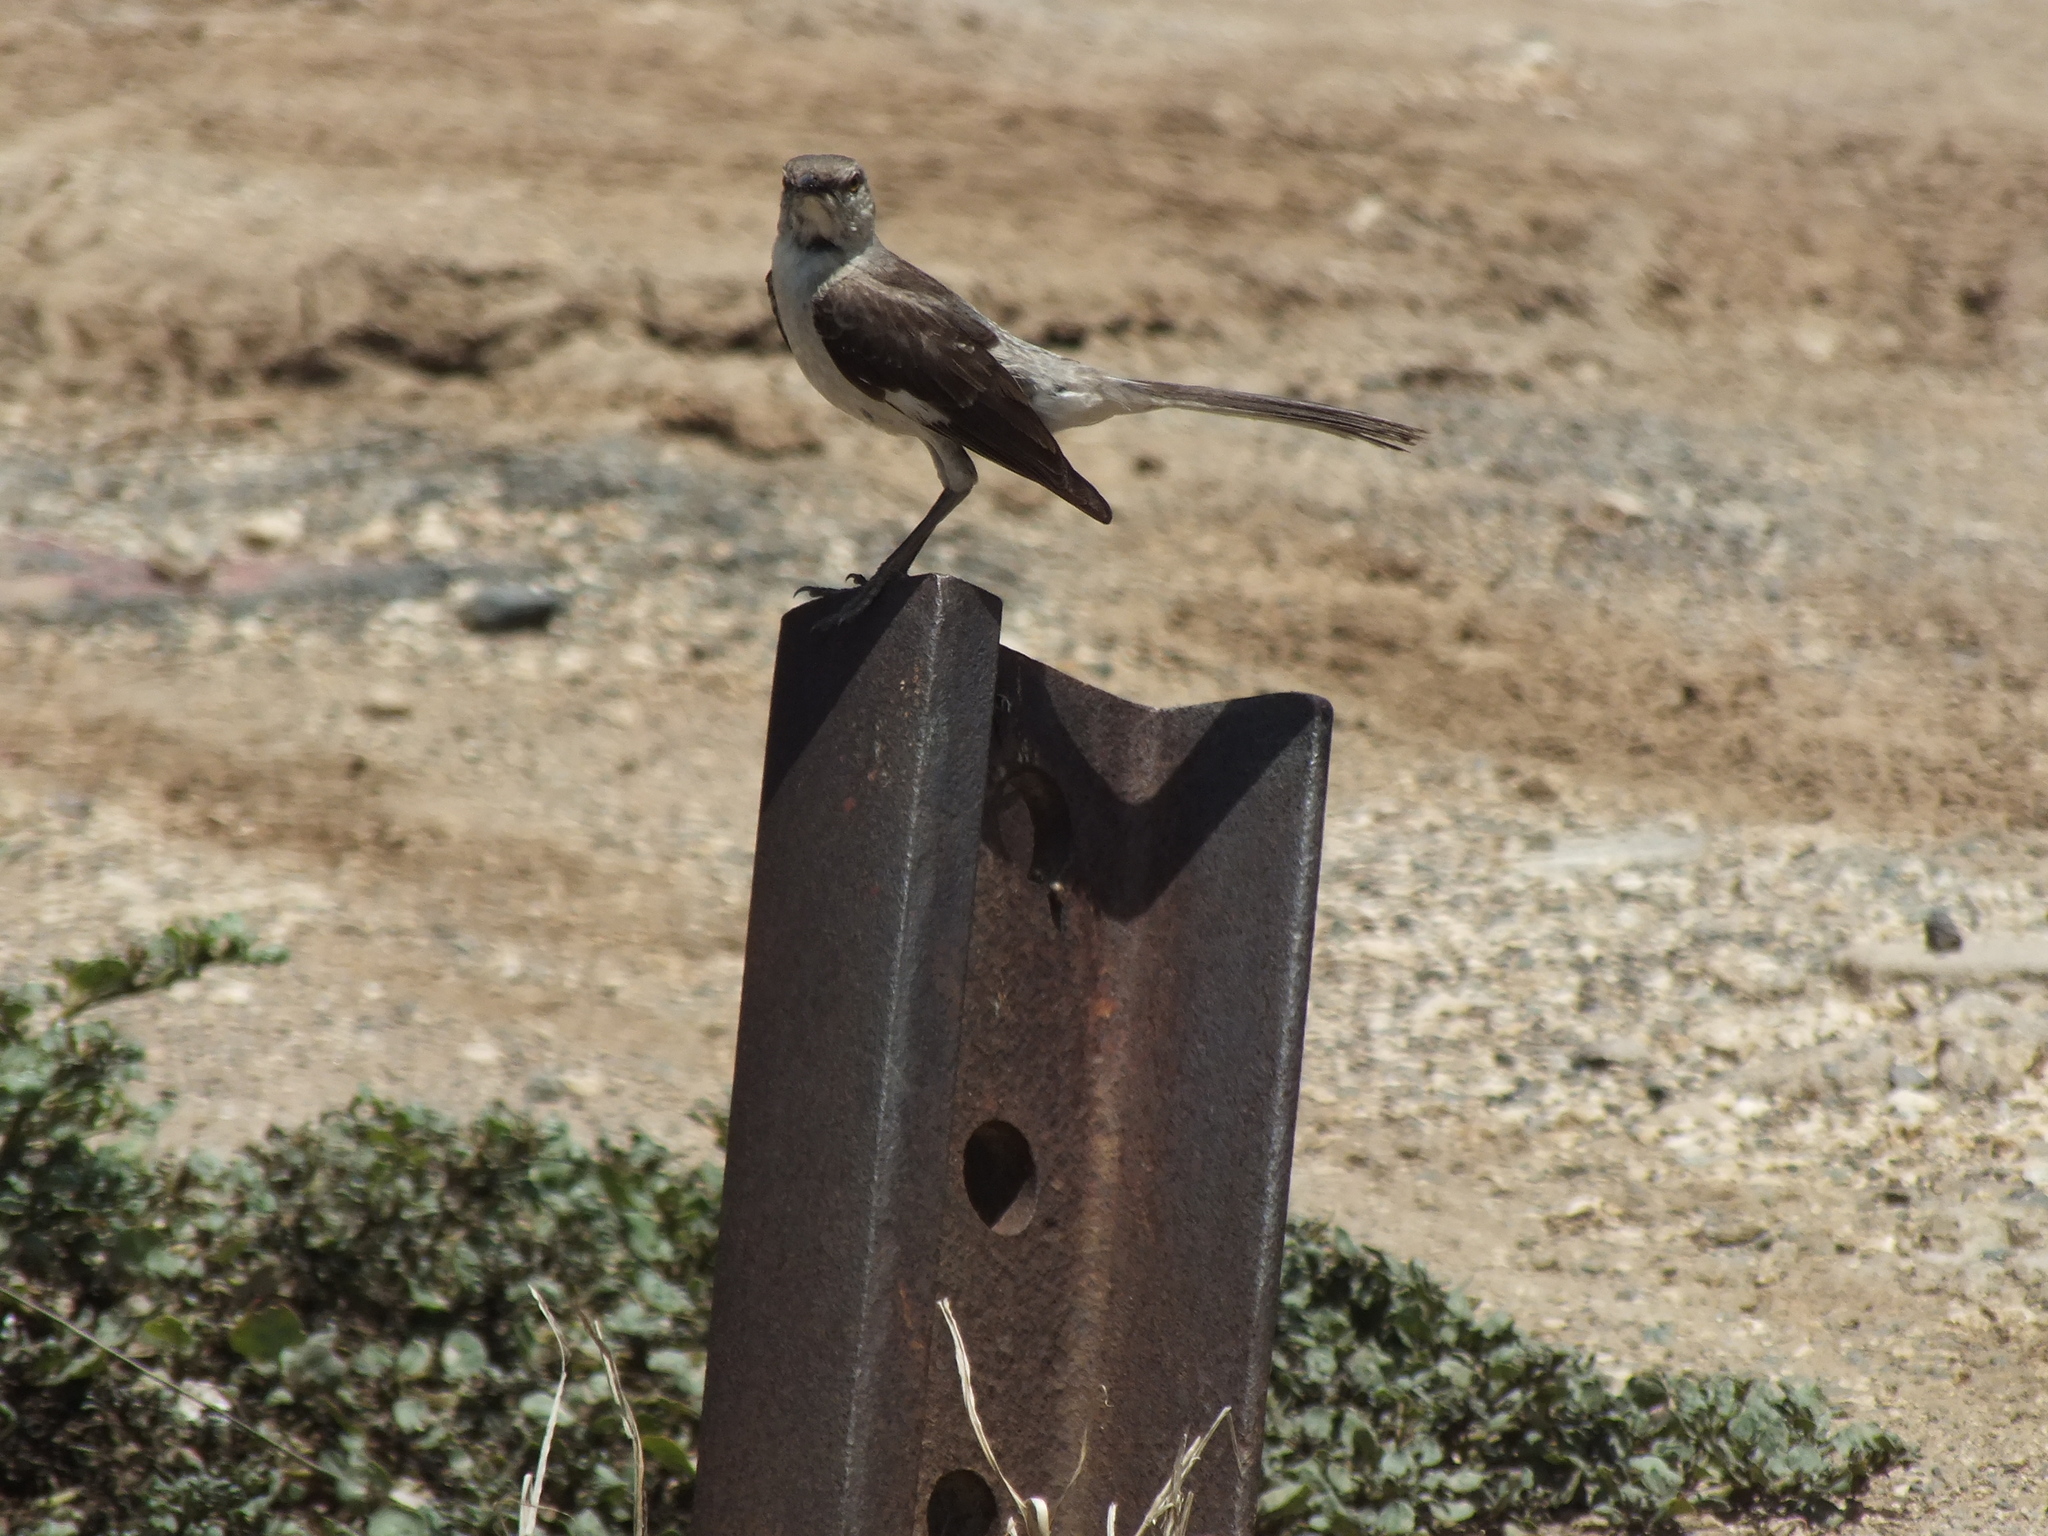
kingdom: Animalia
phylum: Chordata
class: Aves
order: Passeriformes
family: Mimidae
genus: Mimus
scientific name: Mimus polyglottos
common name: Northern mockingbird
